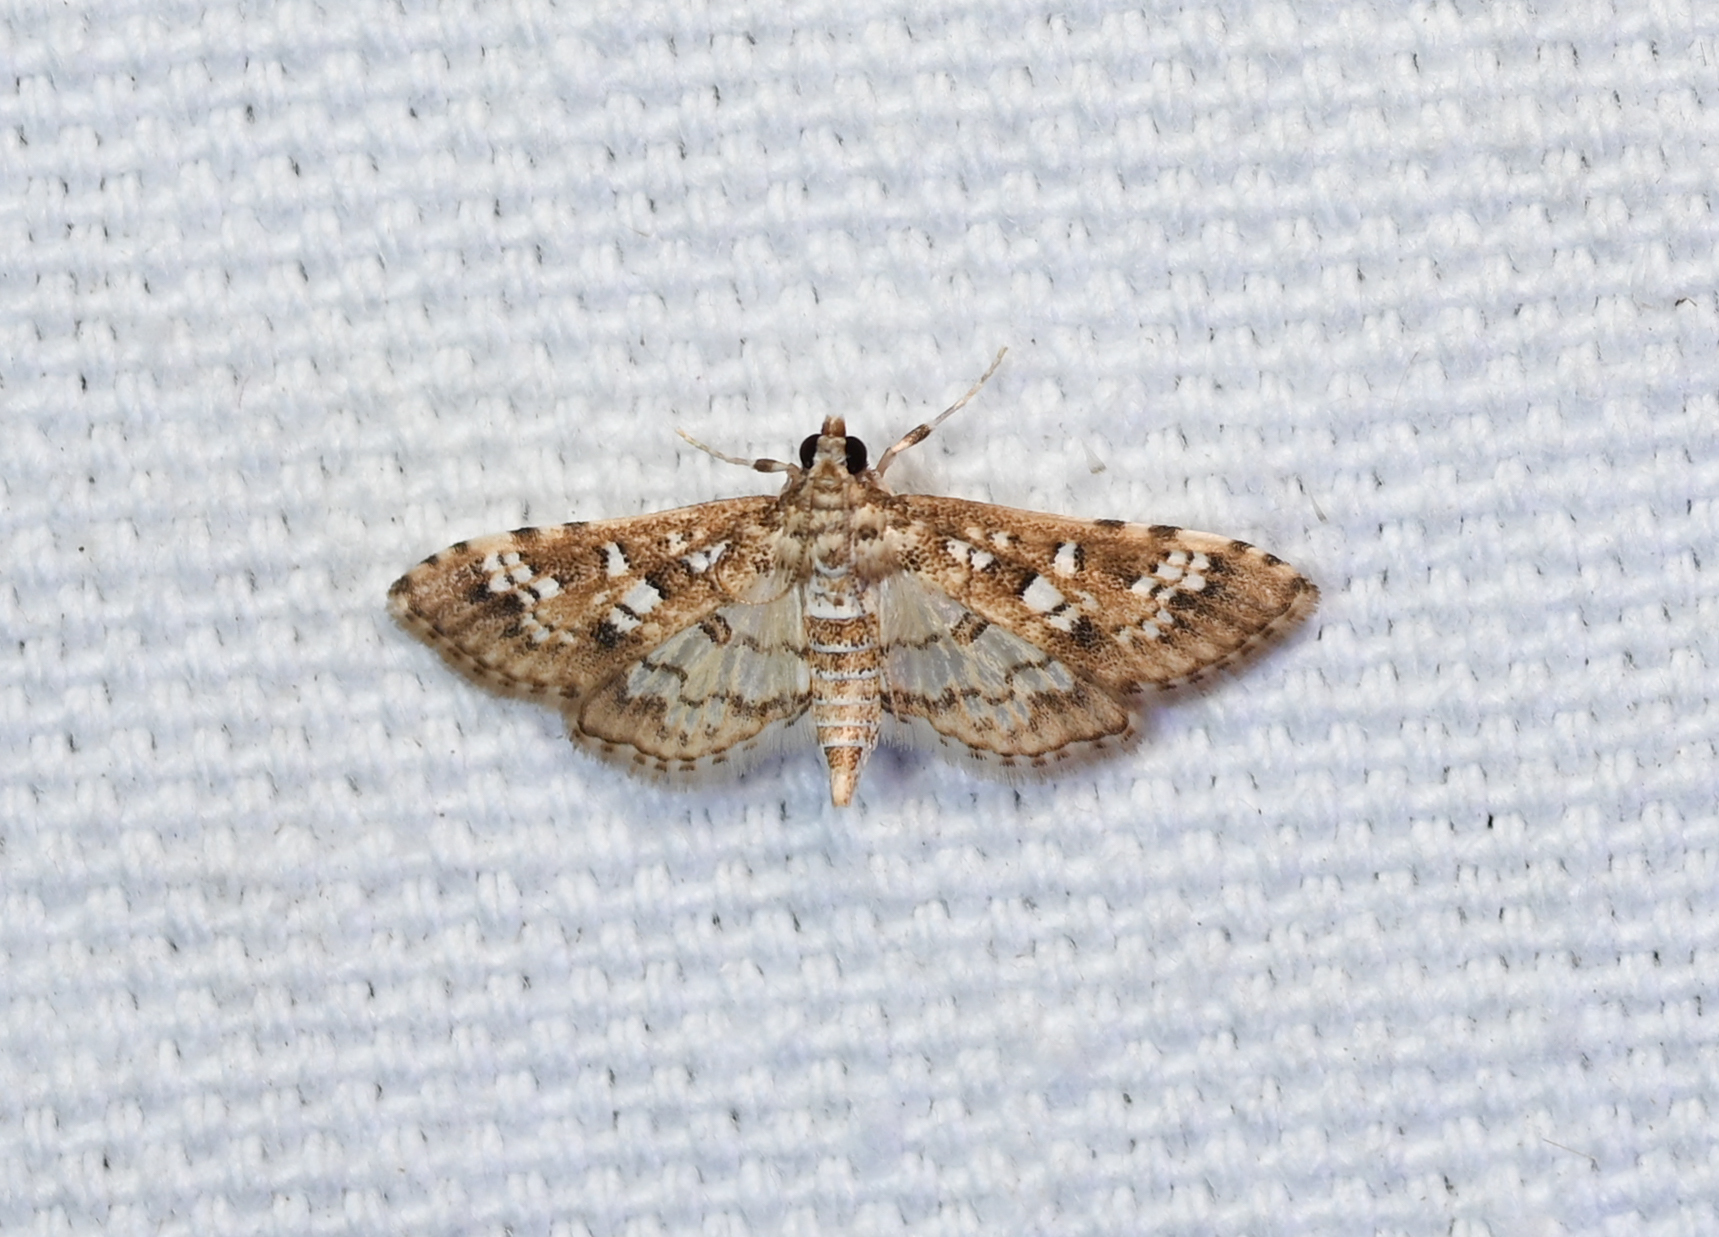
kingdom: Animalia
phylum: Arthropoda
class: Insecta
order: Lepidoptera
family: Crambidae
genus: Samea
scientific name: Samea multiplicalis
